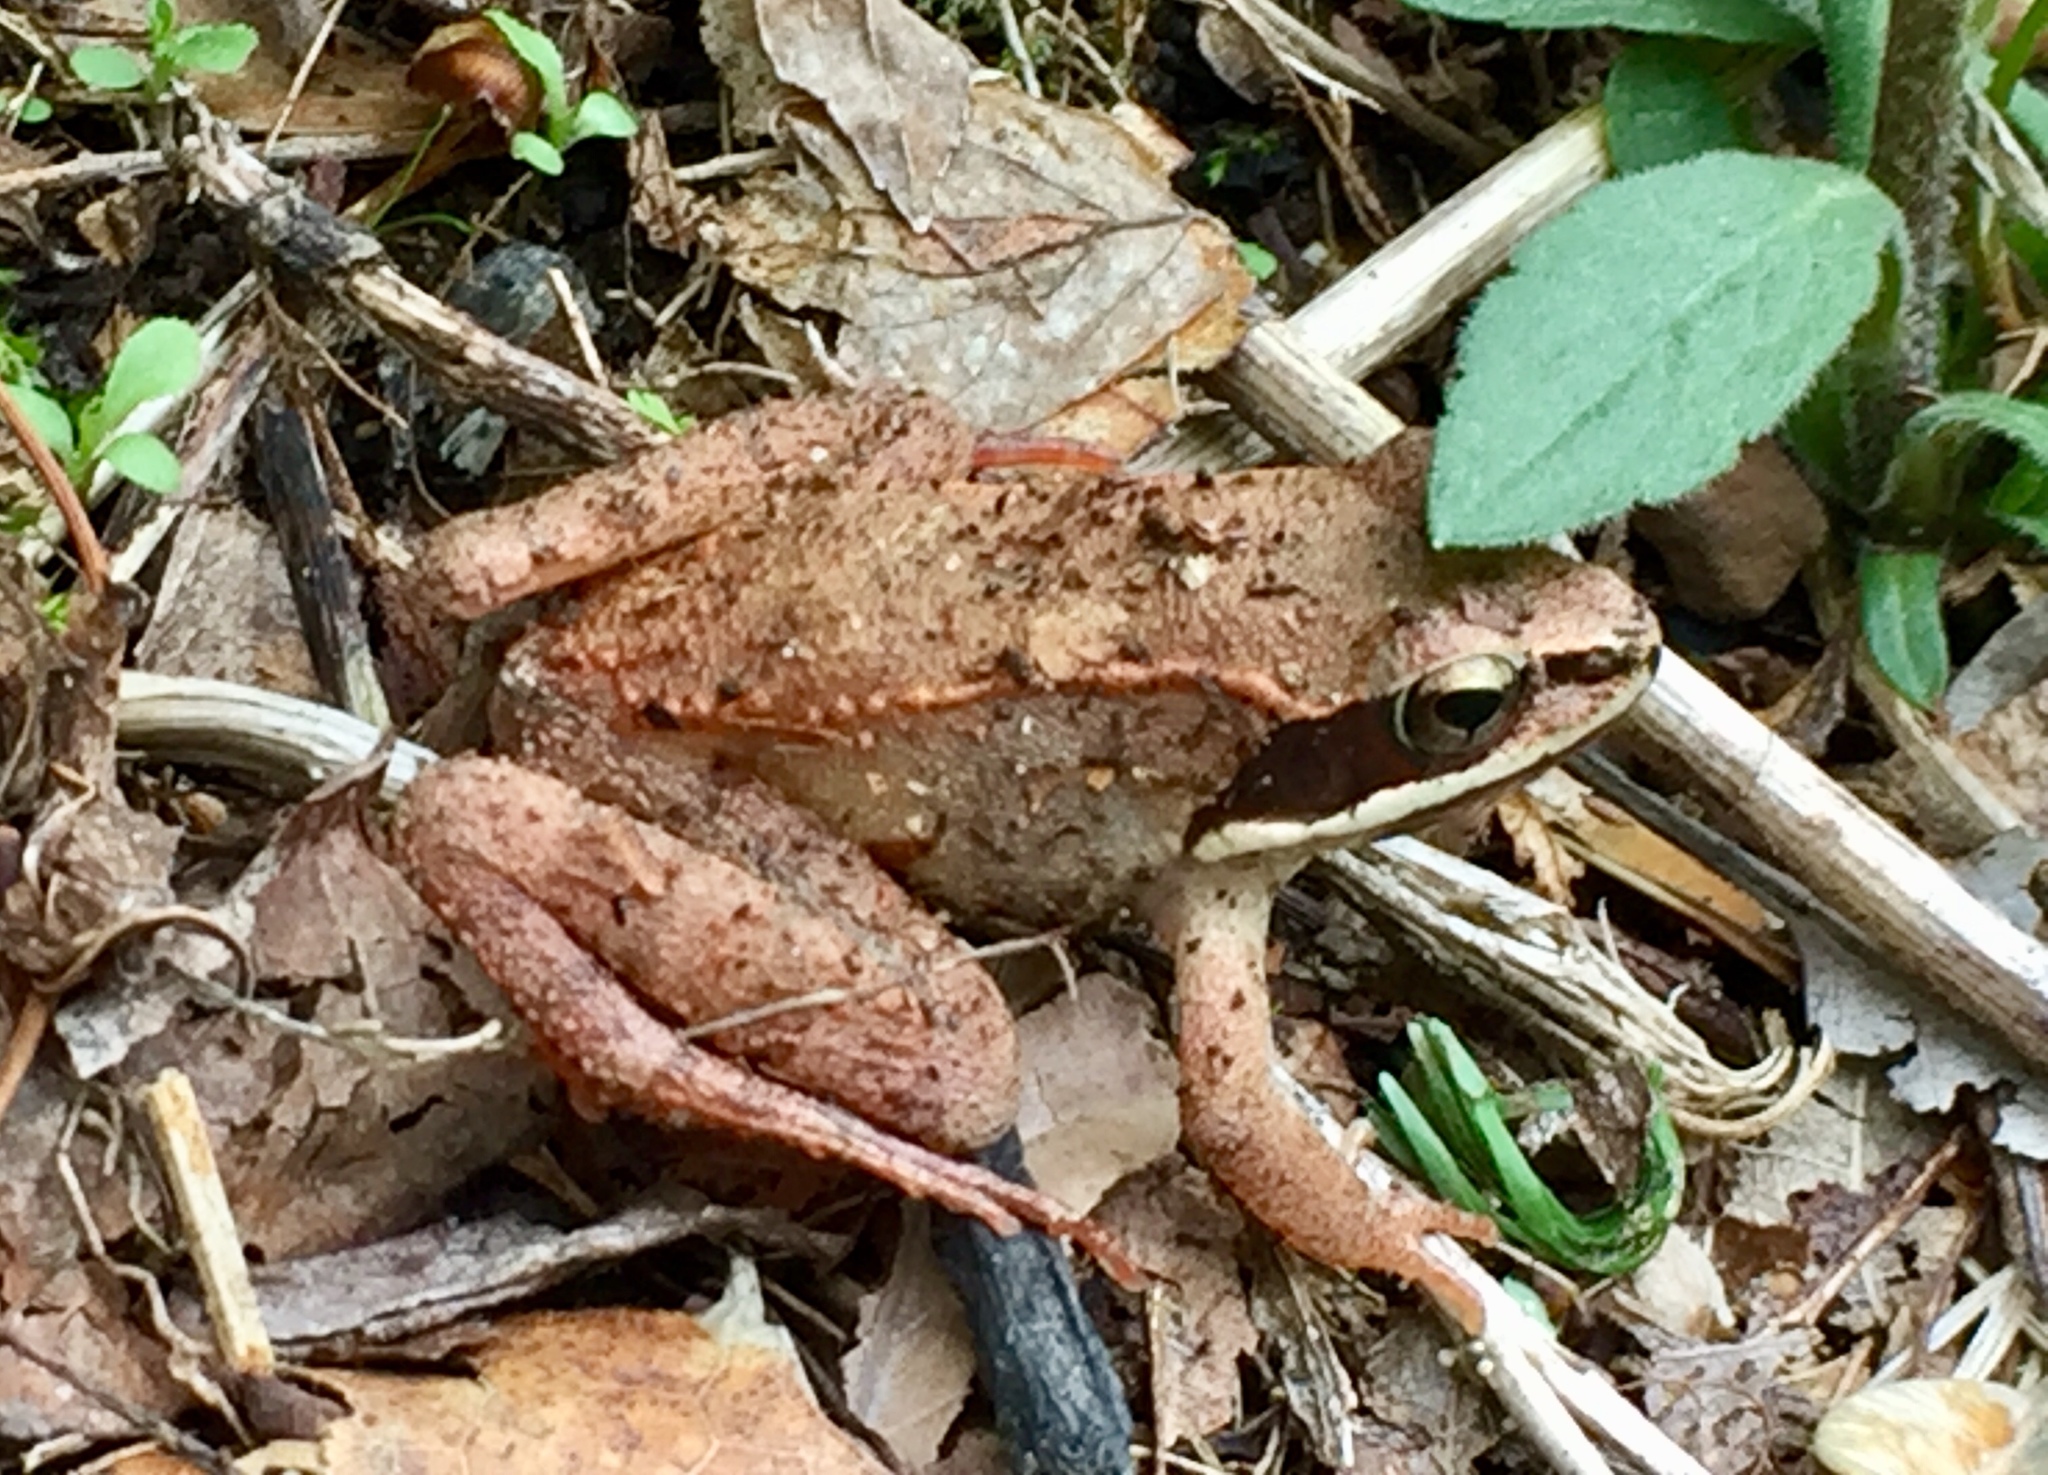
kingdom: Animalia
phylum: Chordata
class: Amphibia
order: Anura
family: Ranidae
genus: Lithobates
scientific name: Lithobates sylvaticus
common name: Wood frog
